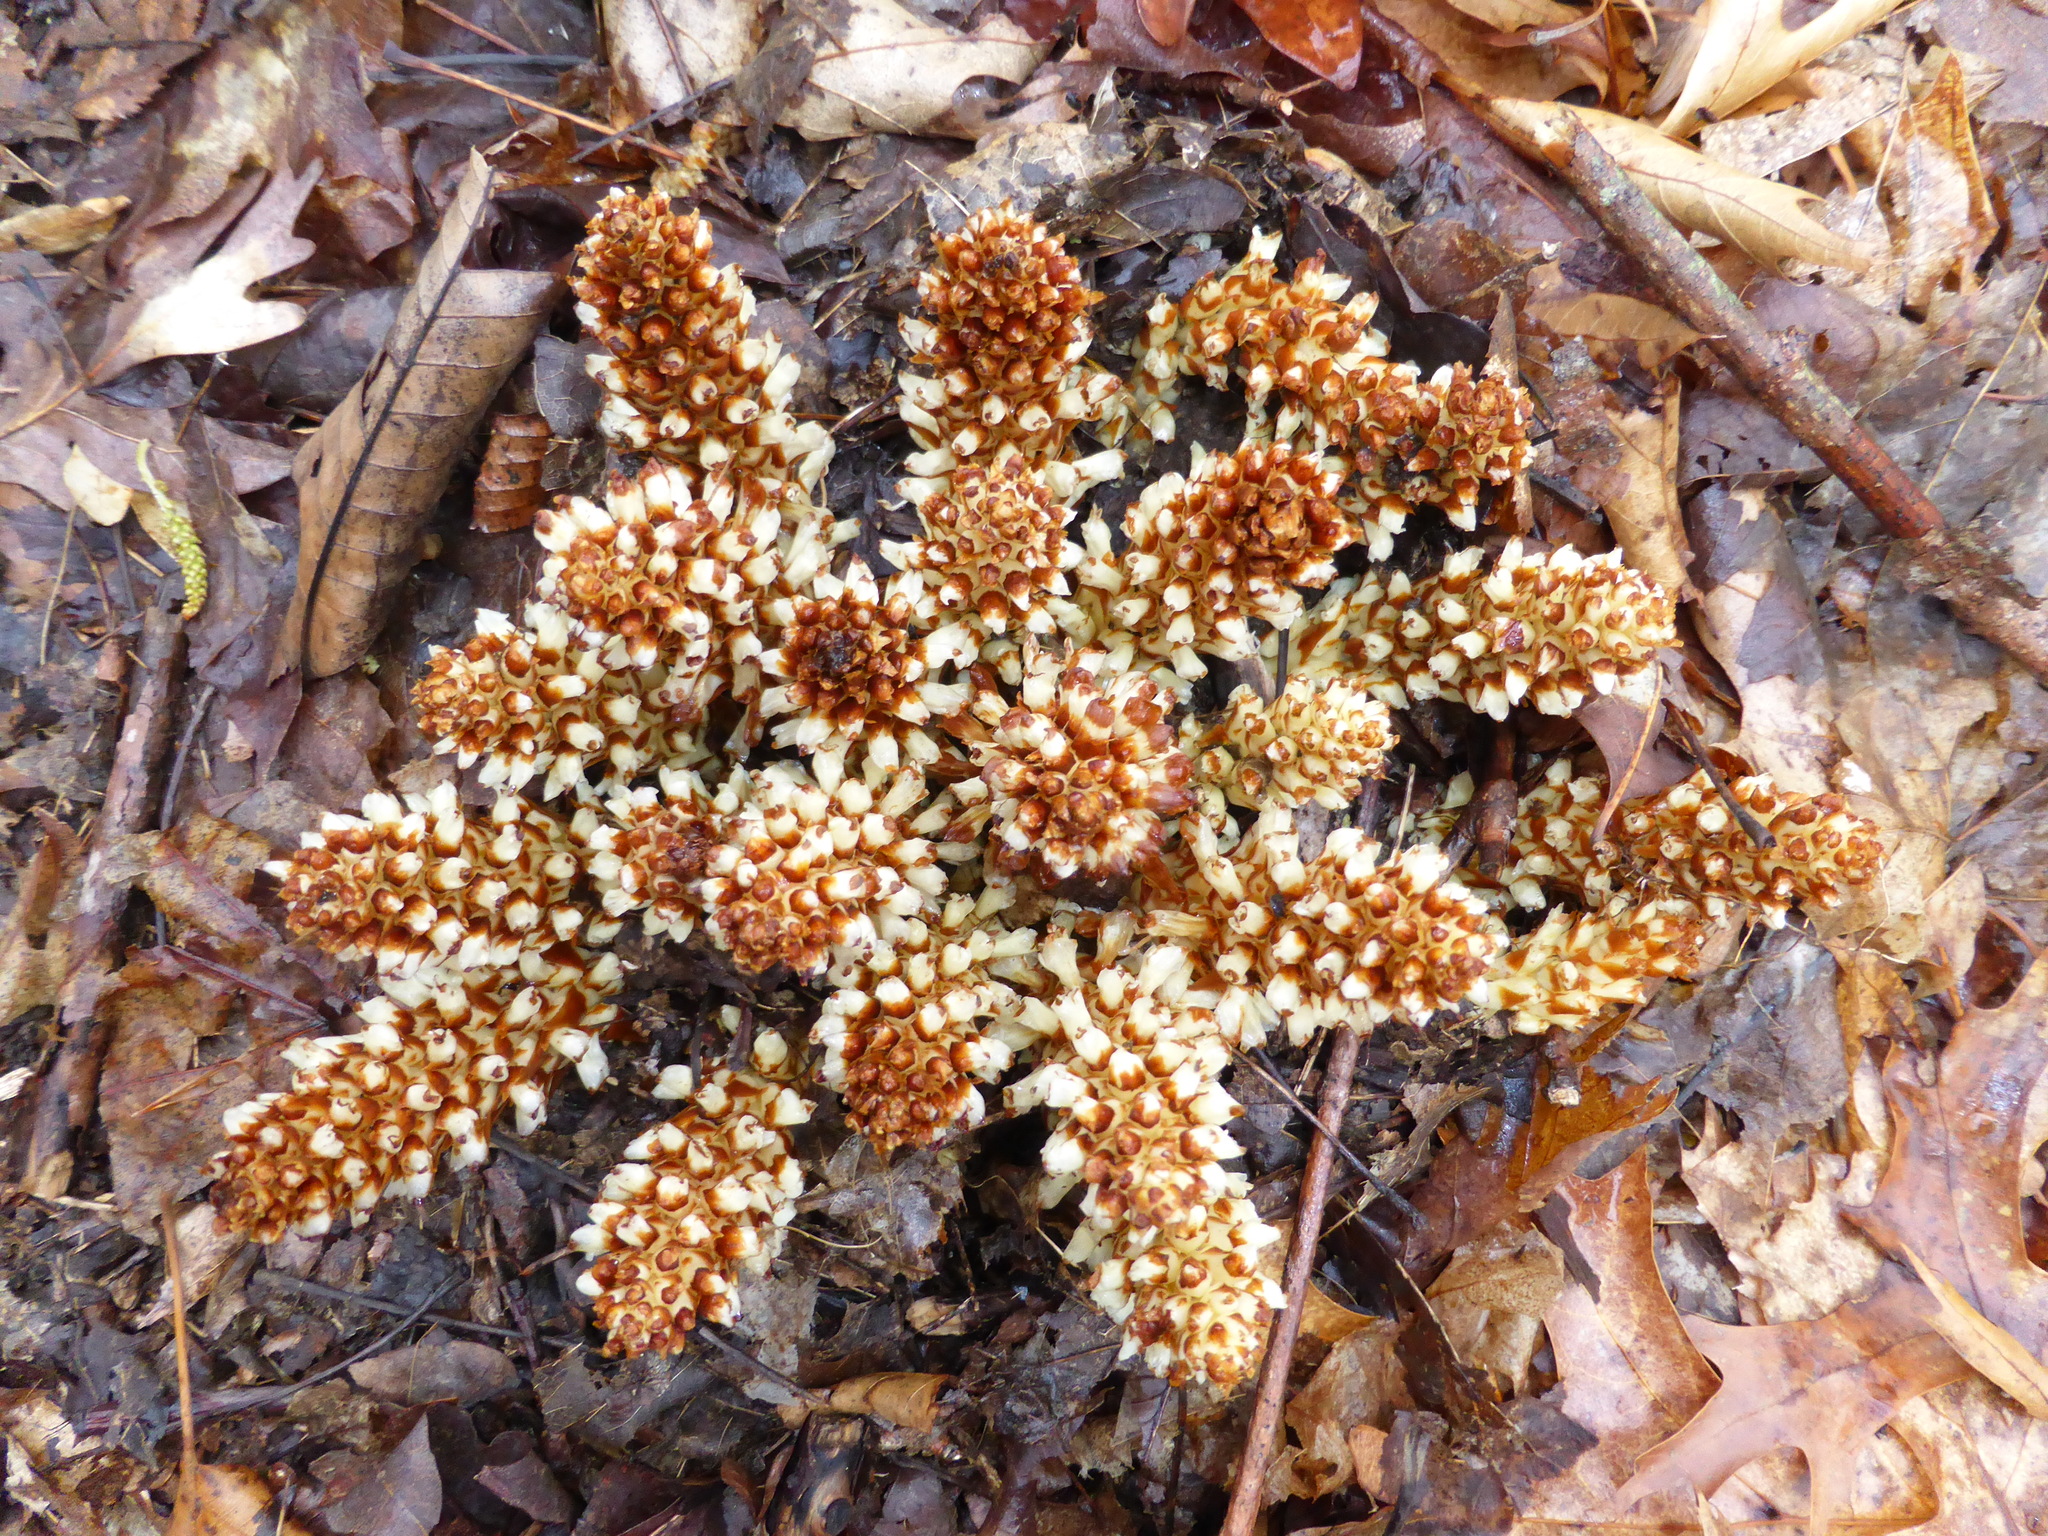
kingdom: Plantae
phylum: Tracheophyta
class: Magnoliopsida
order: Lamiales
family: Orobanchaceae
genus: Conopholis
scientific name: Conopholis americana
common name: American cancer-root
